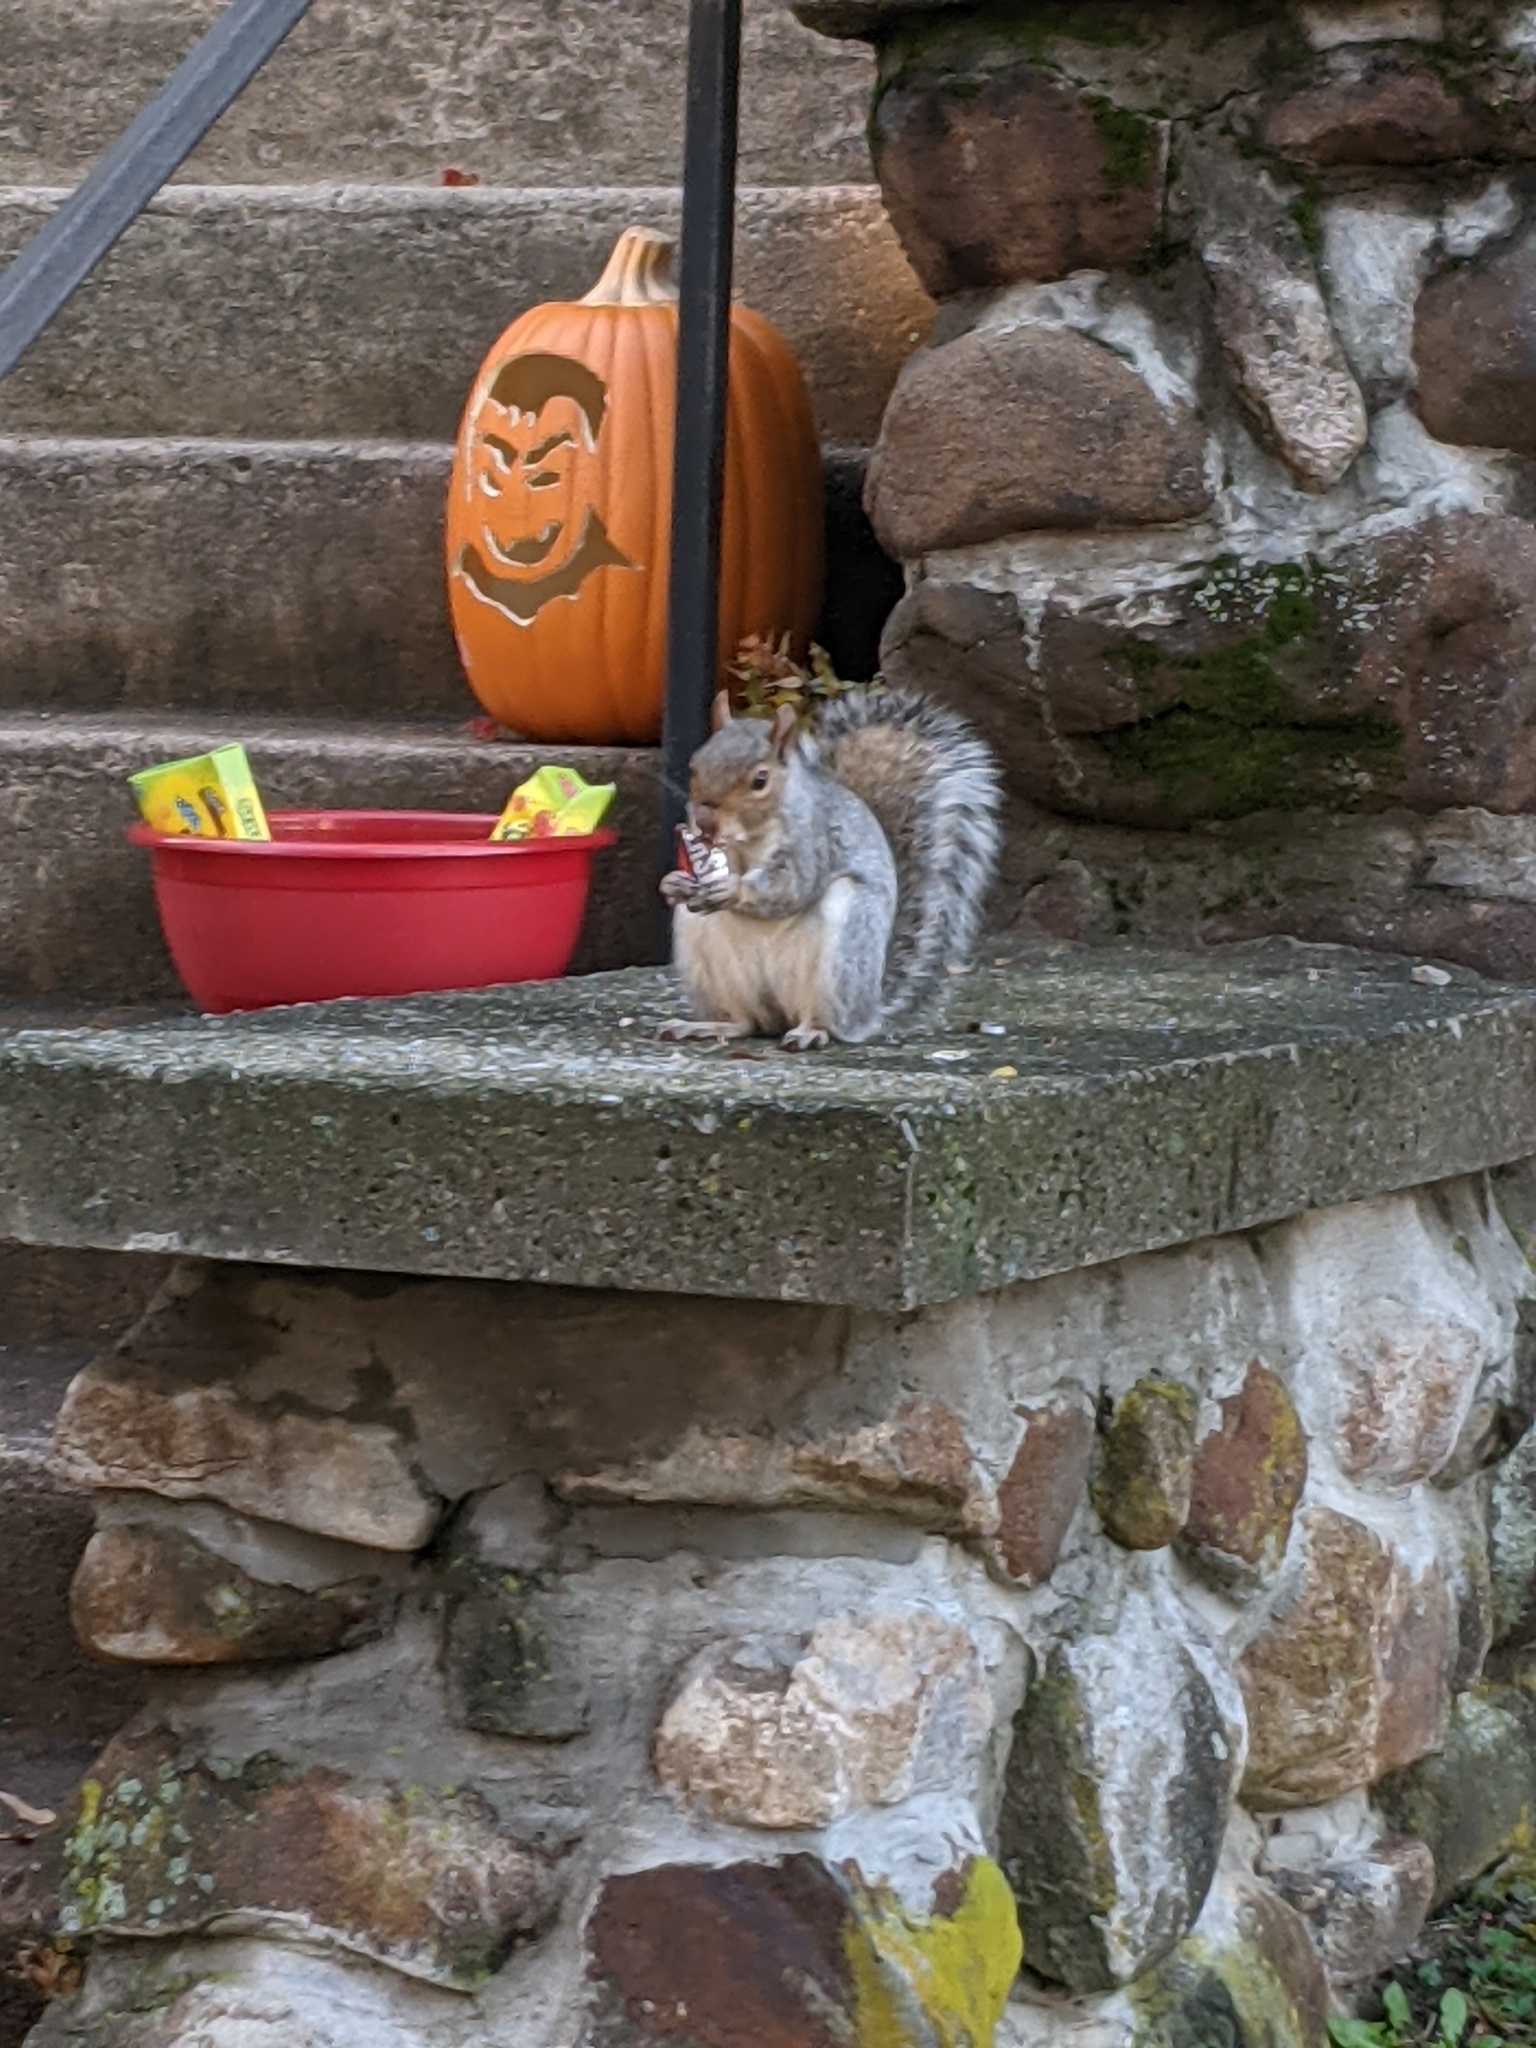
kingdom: Animalia
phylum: Chordata
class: Mammalia
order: Rodentia
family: Sciuridae
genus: Sciurus
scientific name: Sciurus carolinensis
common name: Eastern gray squirrel
